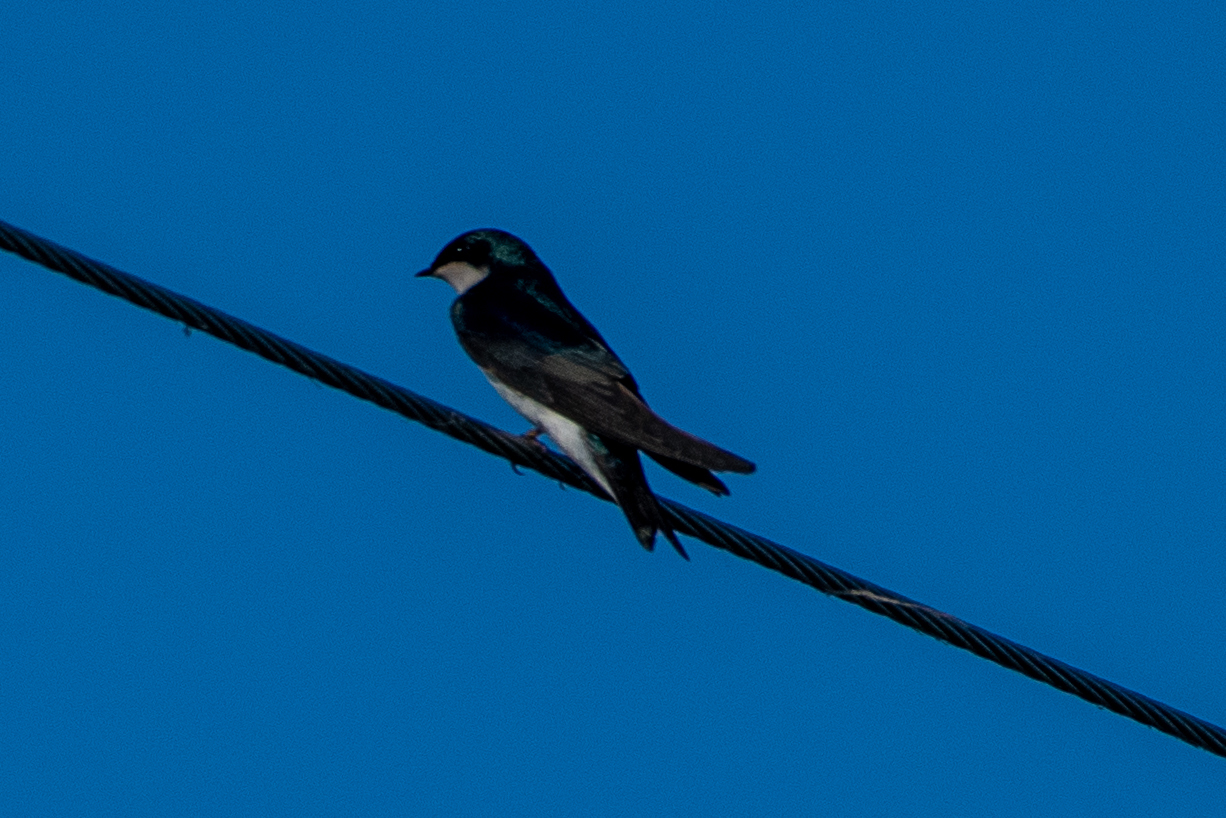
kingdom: Animalia
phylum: Chordata
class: Aves
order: Passeriformes
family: Hirundinidae
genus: Tachycineta
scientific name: Tachycineta bicolor
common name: Tree swallow
